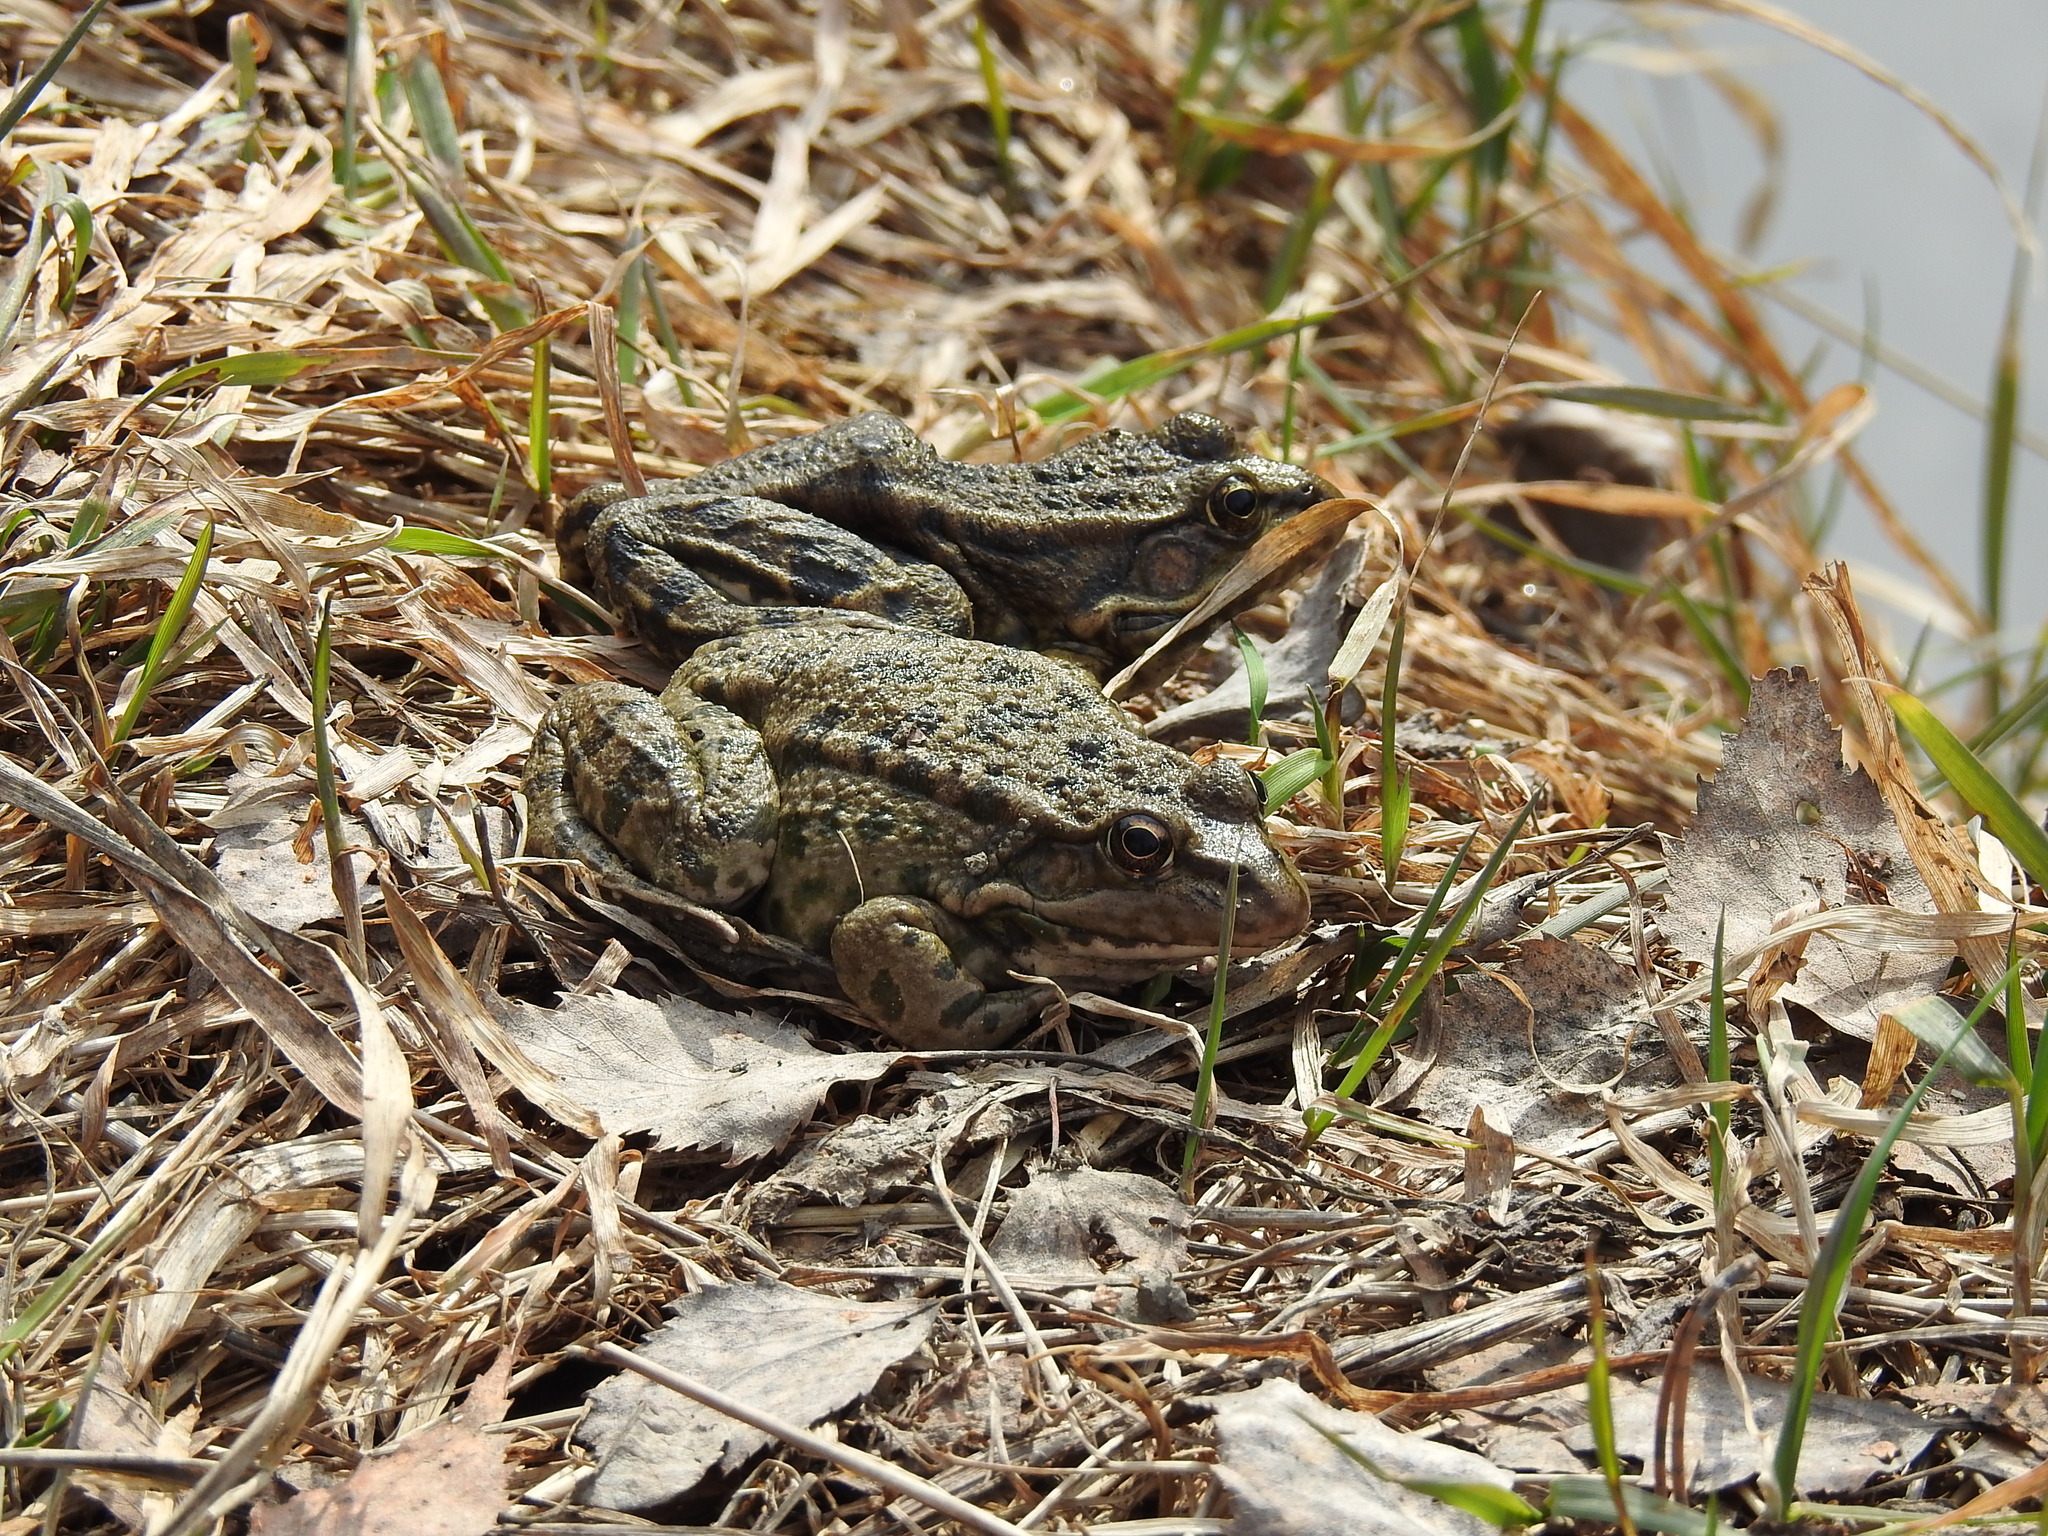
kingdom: Animalia
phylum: Chordata
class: Amphibia
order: Anura
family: Ranidae
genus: Pelophylax
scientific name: Pelophylax ridibundus
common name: Marsh frog
